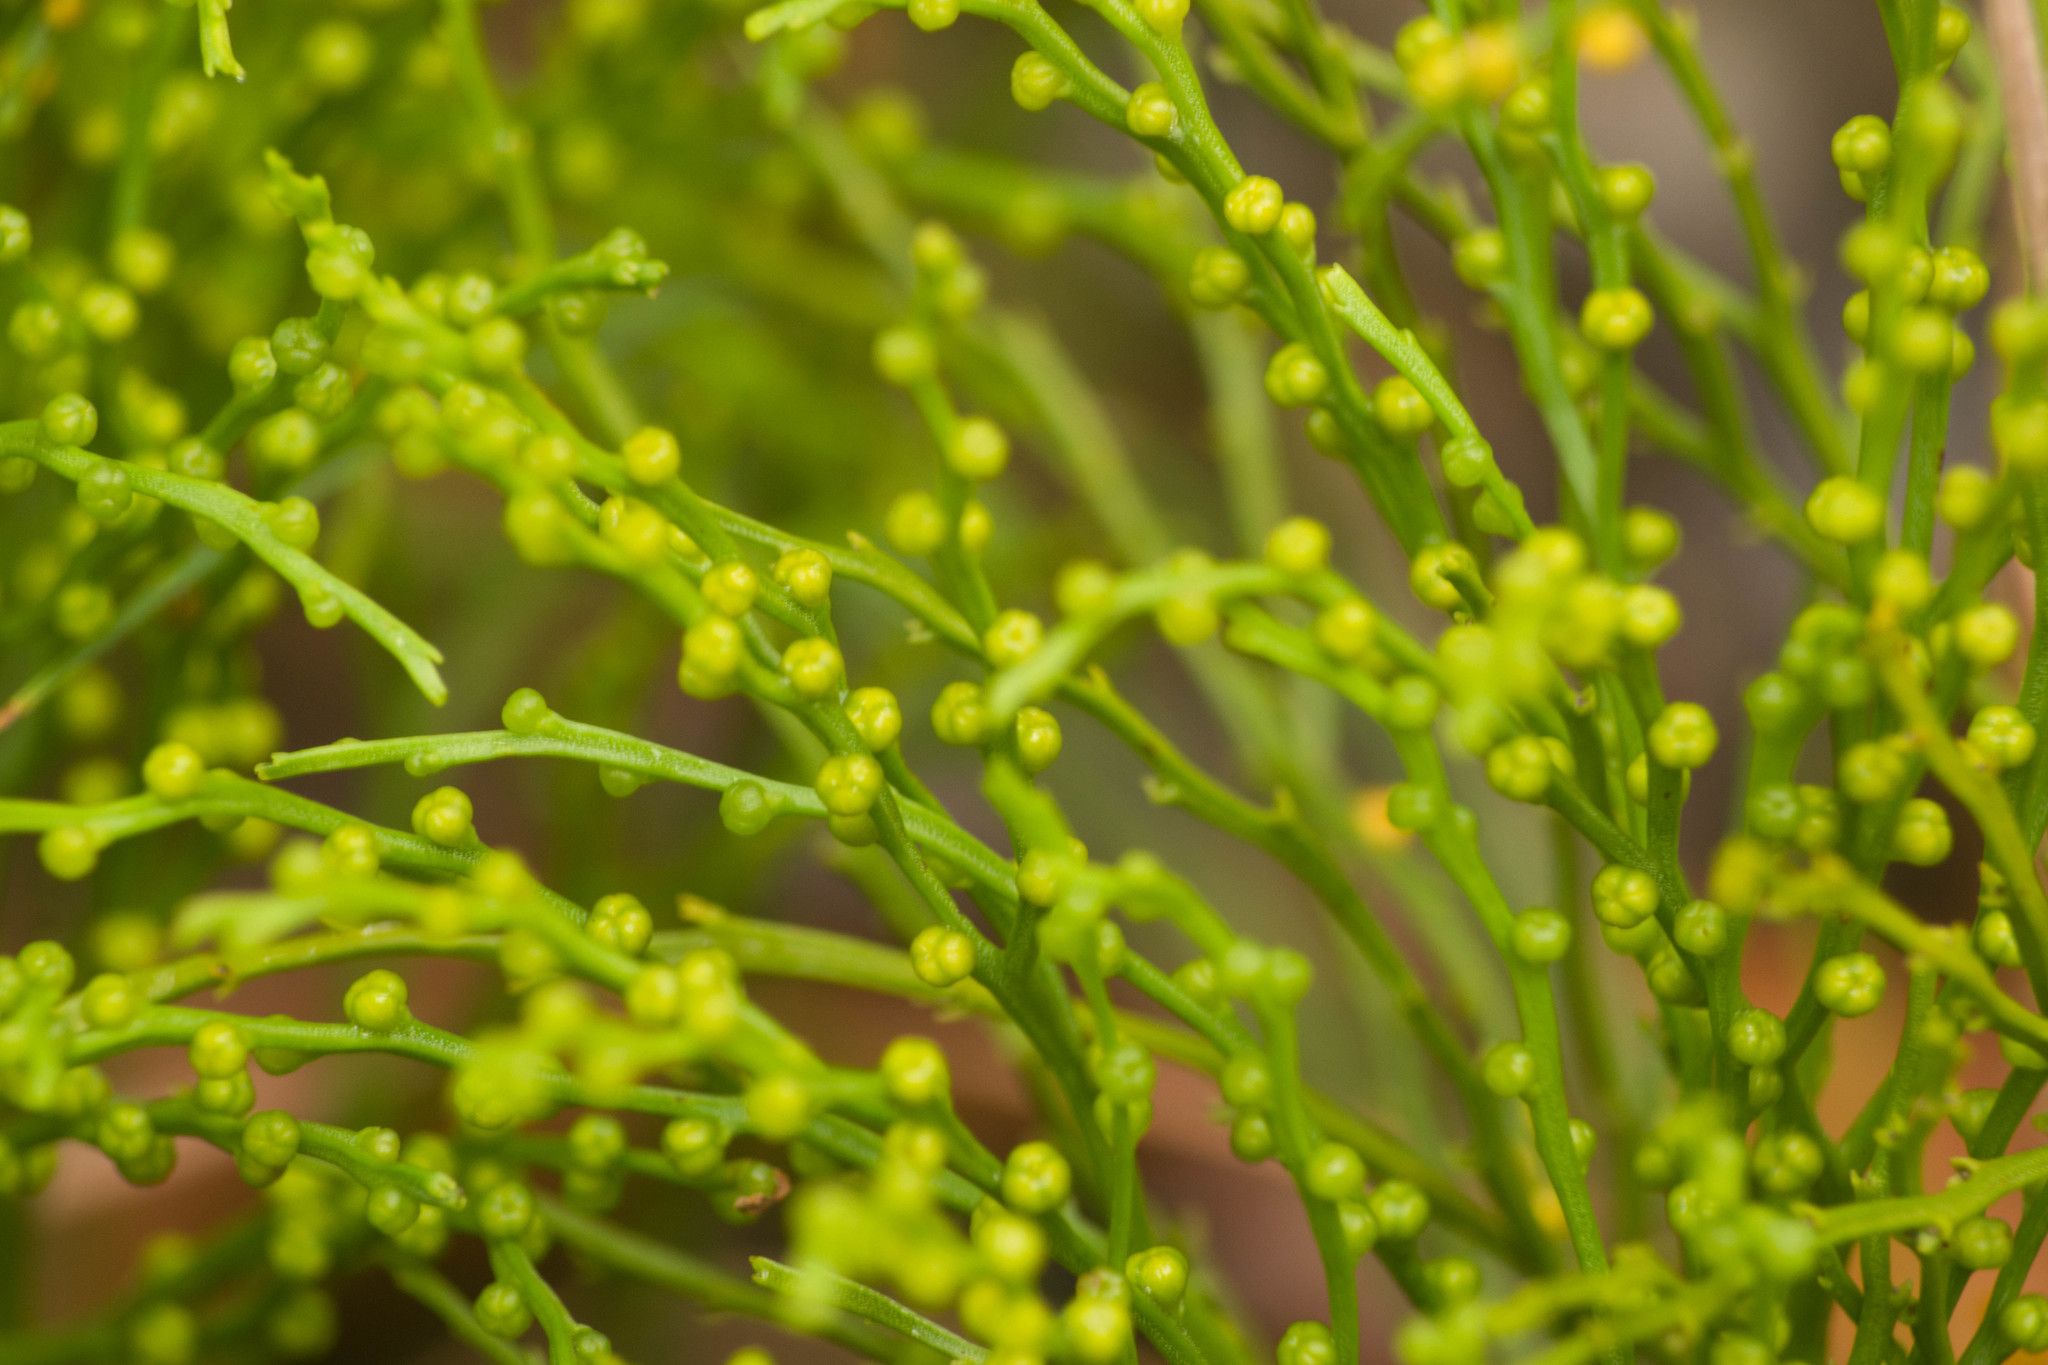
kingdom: Plantae
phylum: Tracheophyta
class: Polypodiopsida
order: Psilotales
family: Psilotaceae
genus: Psilotum
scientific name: Psilotum nudum
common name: Skeleton fork fern
